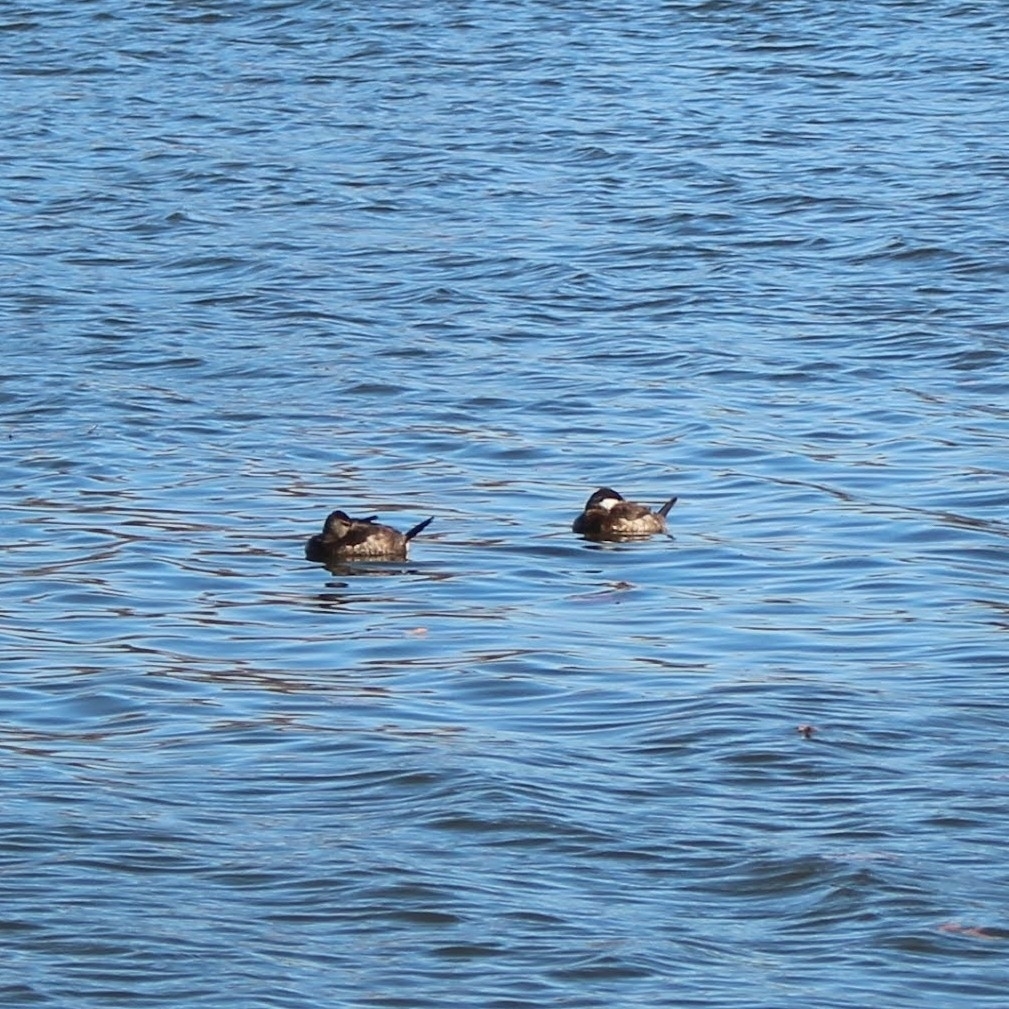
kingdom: Animalia
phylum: Chordata
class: Aves
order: Anseriformes
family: Anatidae
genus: Oxyura
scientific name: Oxyura jamaicensis
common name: Ruddy duck
